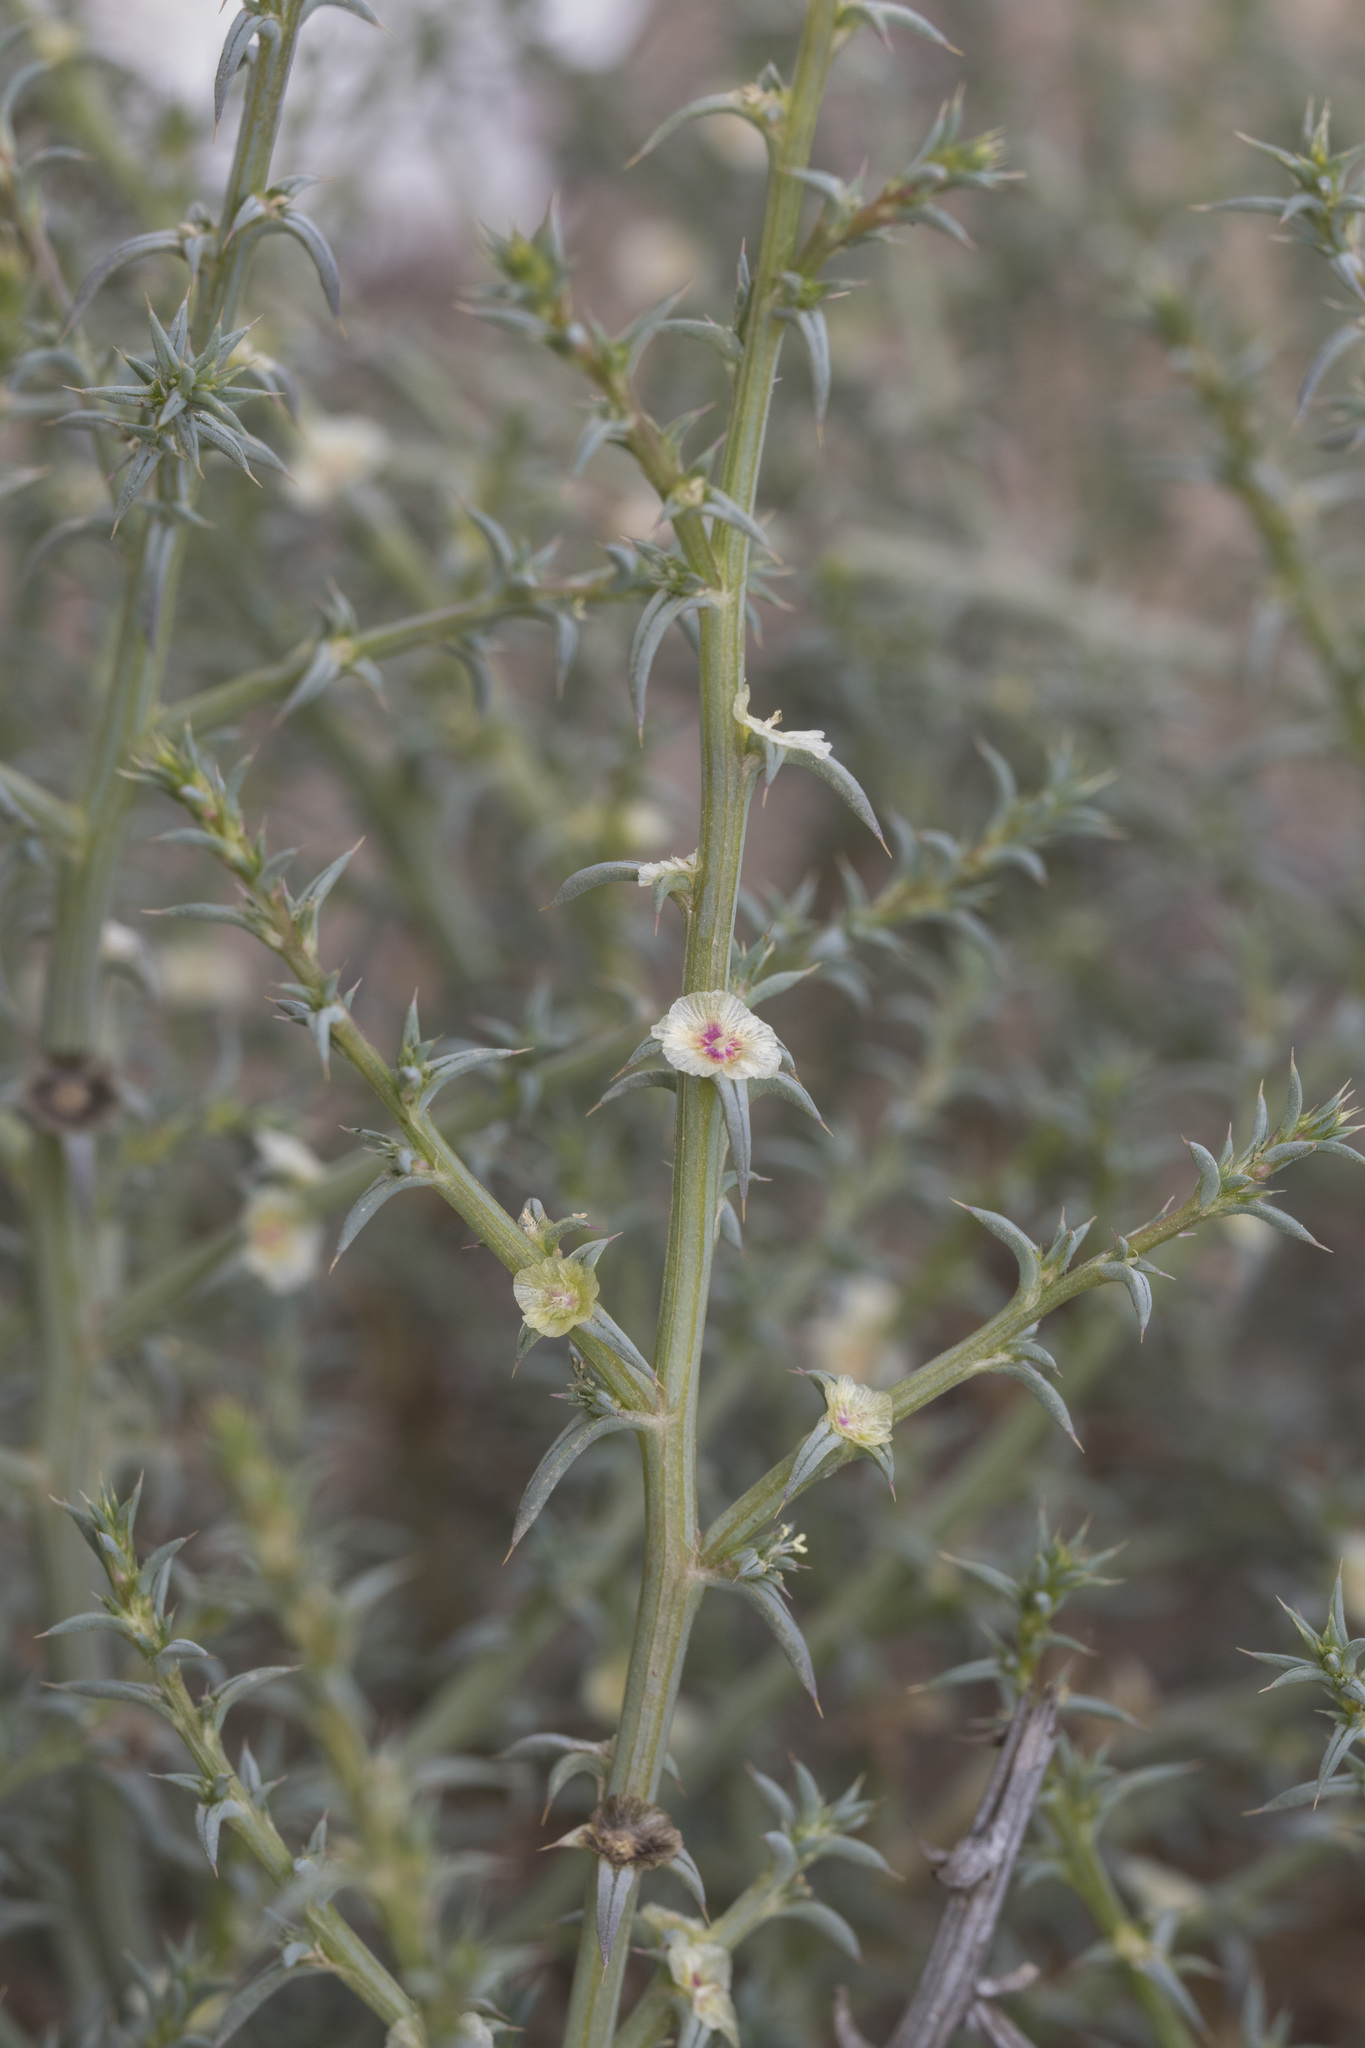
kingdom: Plantae
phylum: Tracheophyta
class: Magnoliopsida
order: Caryophyllales
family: Amaranthaceae
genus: Salsola
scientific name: Salsola kali
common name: Saltwort
